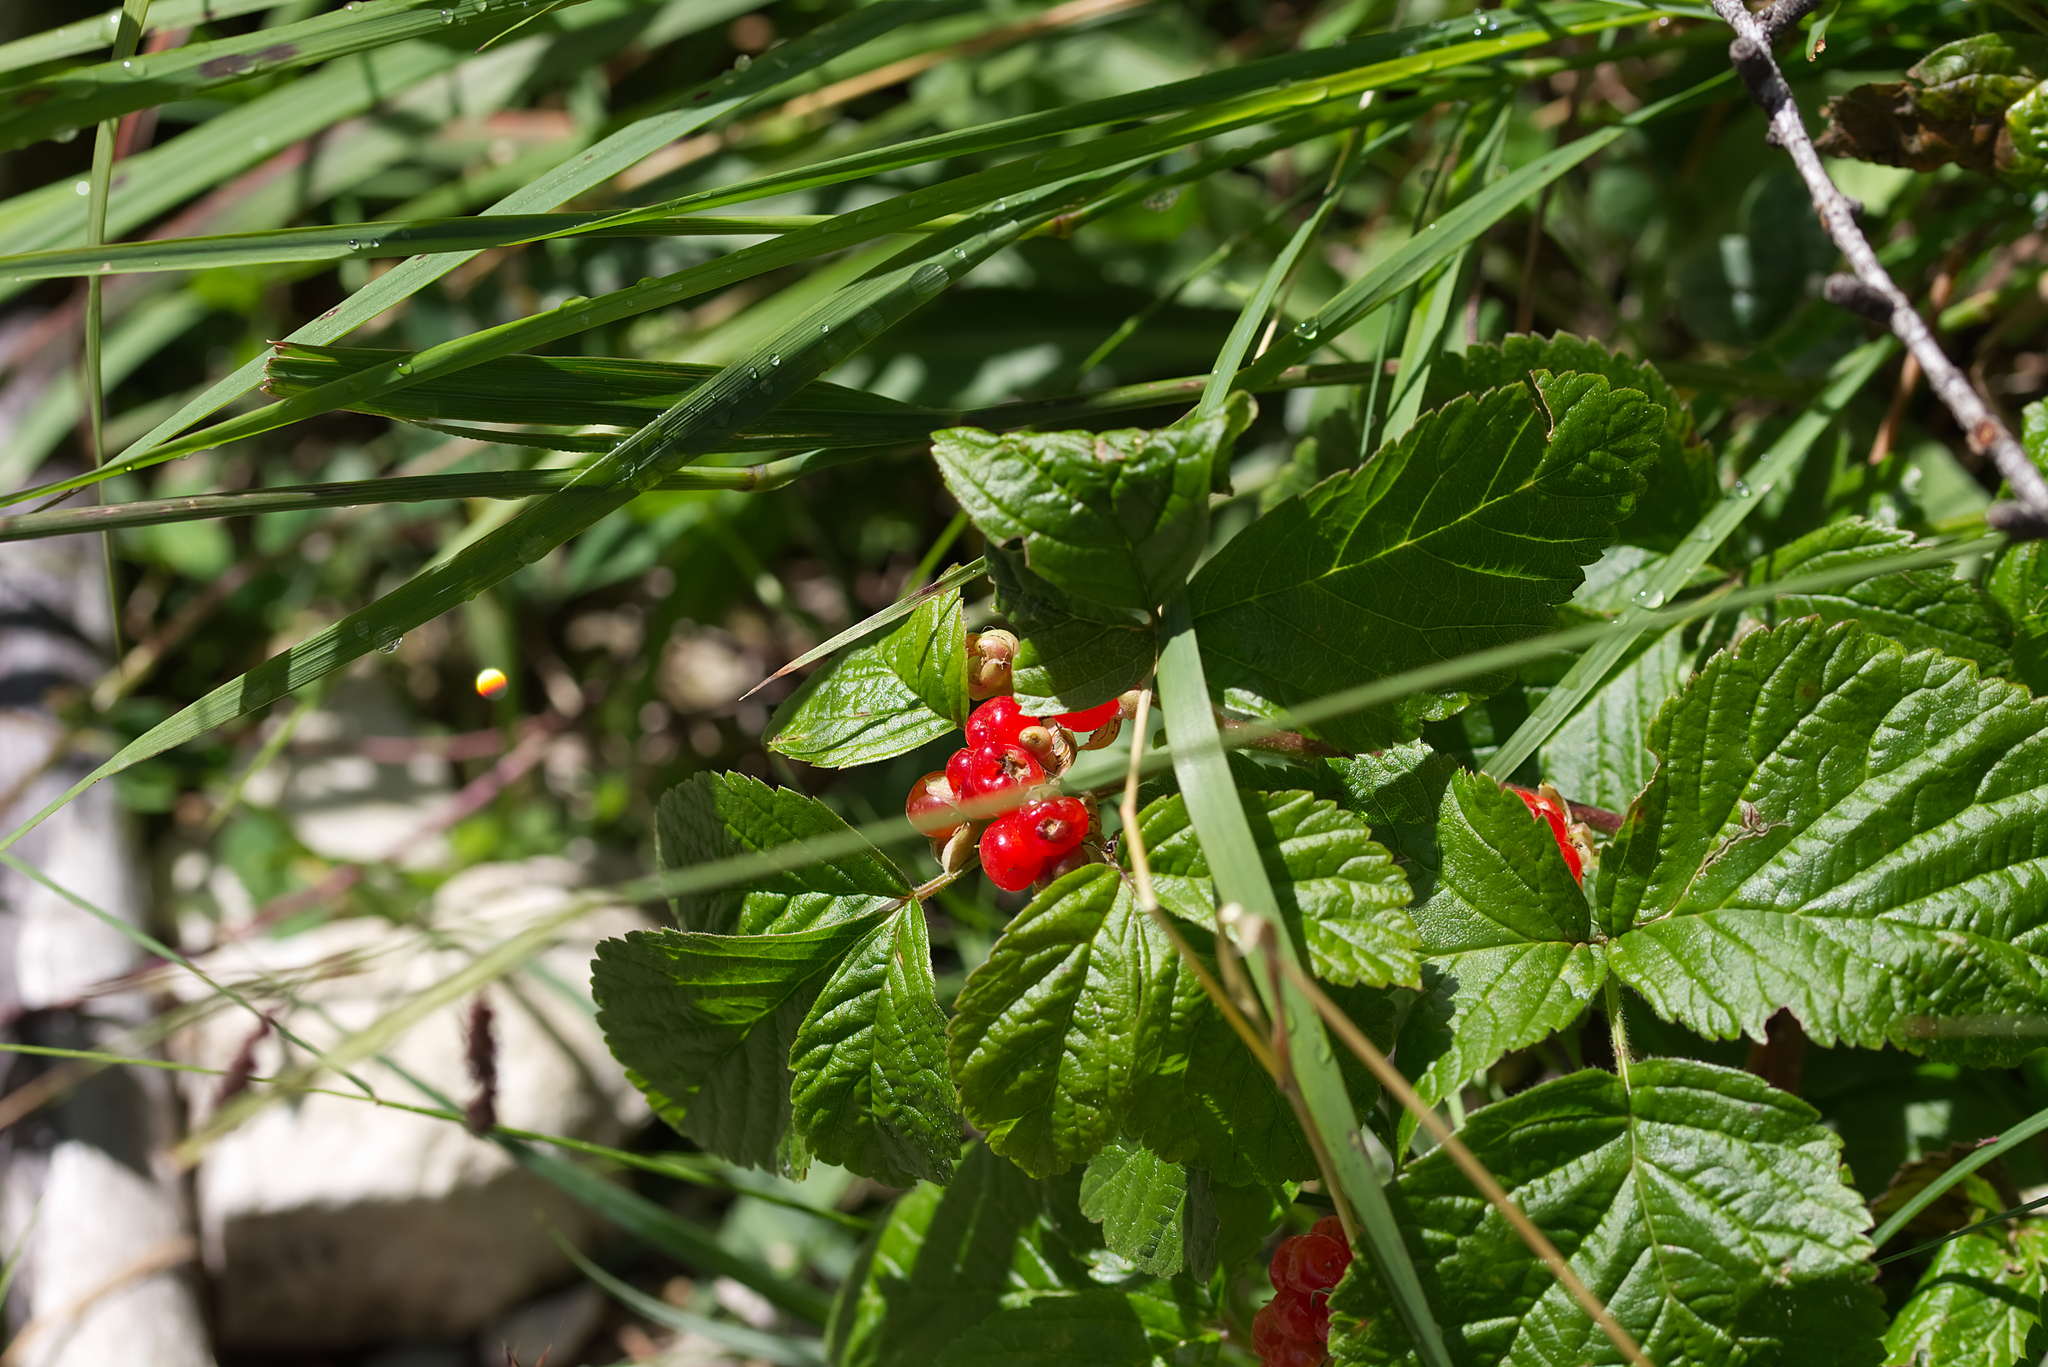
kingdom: Plantae
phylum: Tracheophyta
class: Magnoliopsida
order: Rosales
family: Rosaceae
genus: Rubus
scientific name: Rubus saxatilis
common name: Stone bramble
